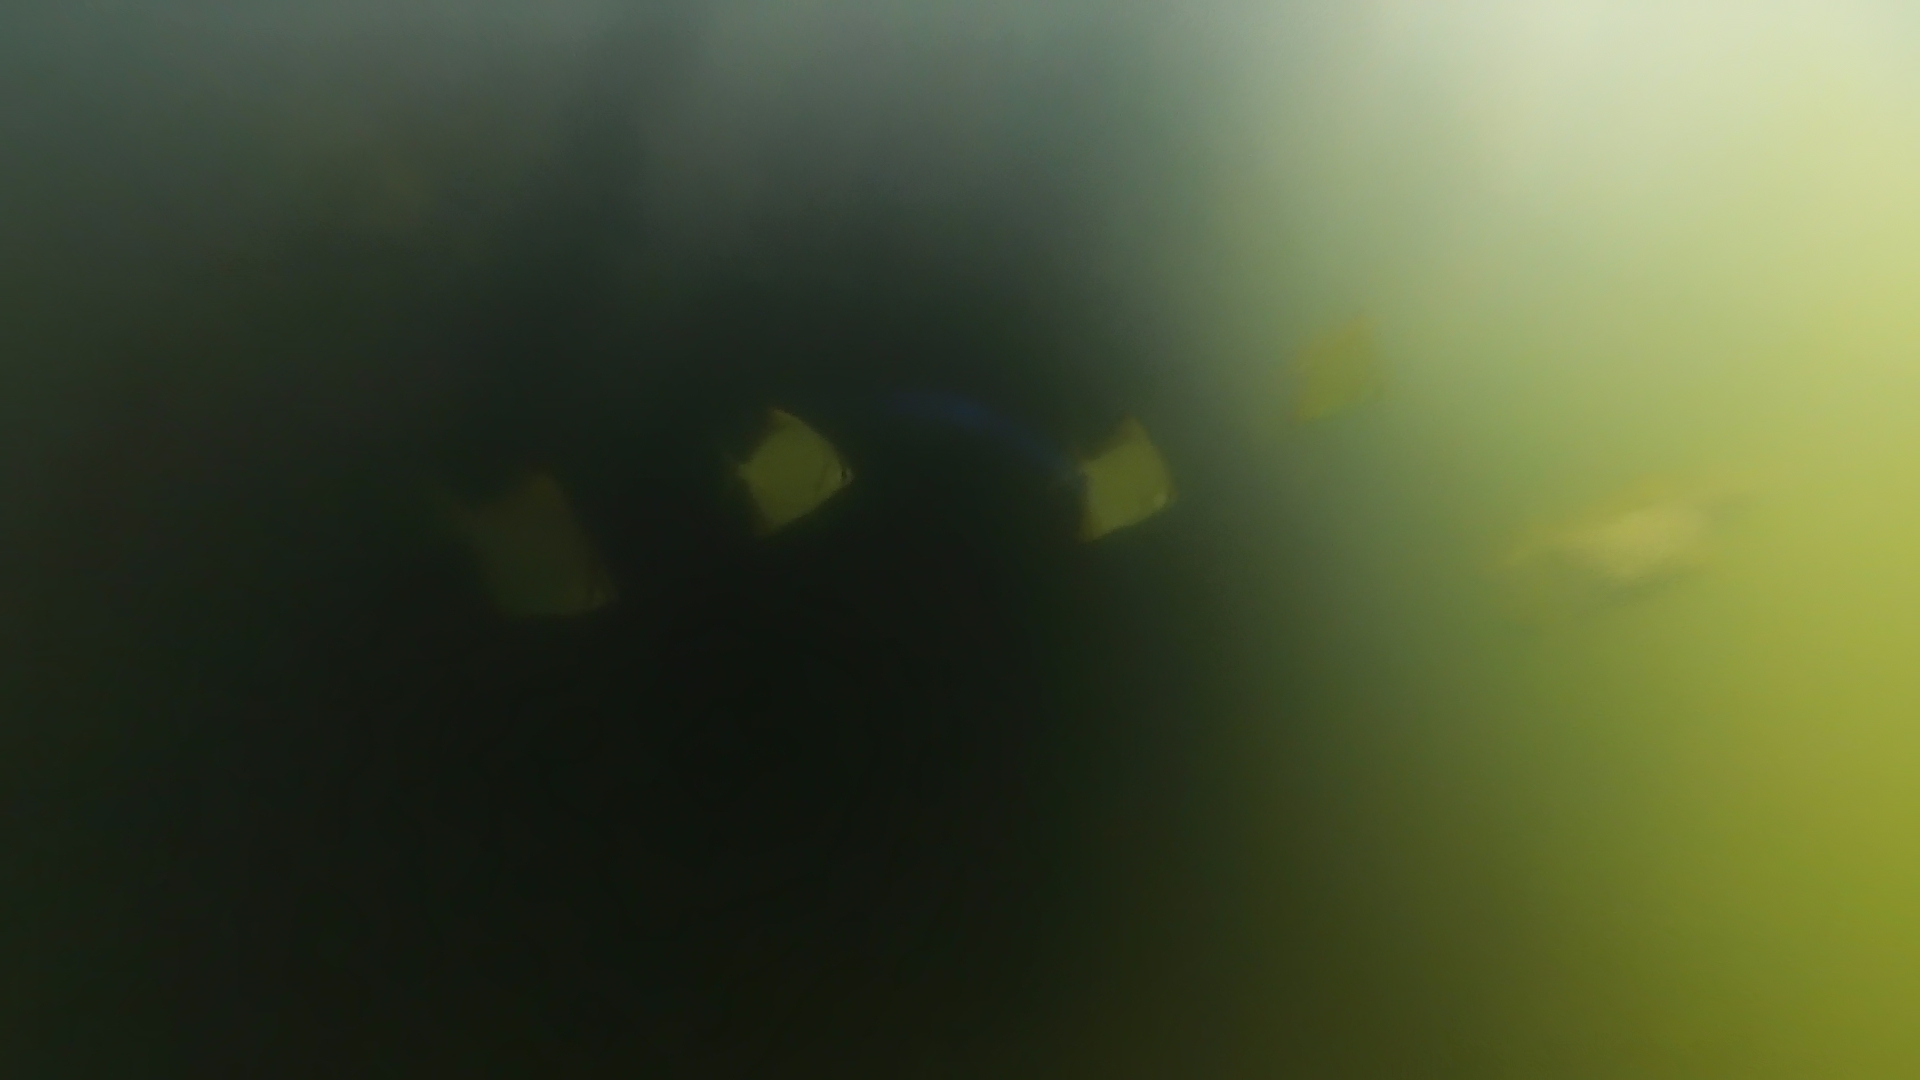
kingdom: Animalia
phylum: Chordata
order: Perciformes
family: Monodactylidae
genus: Monodactylus
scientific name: Monodactylus argenteus
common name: Silver moony
